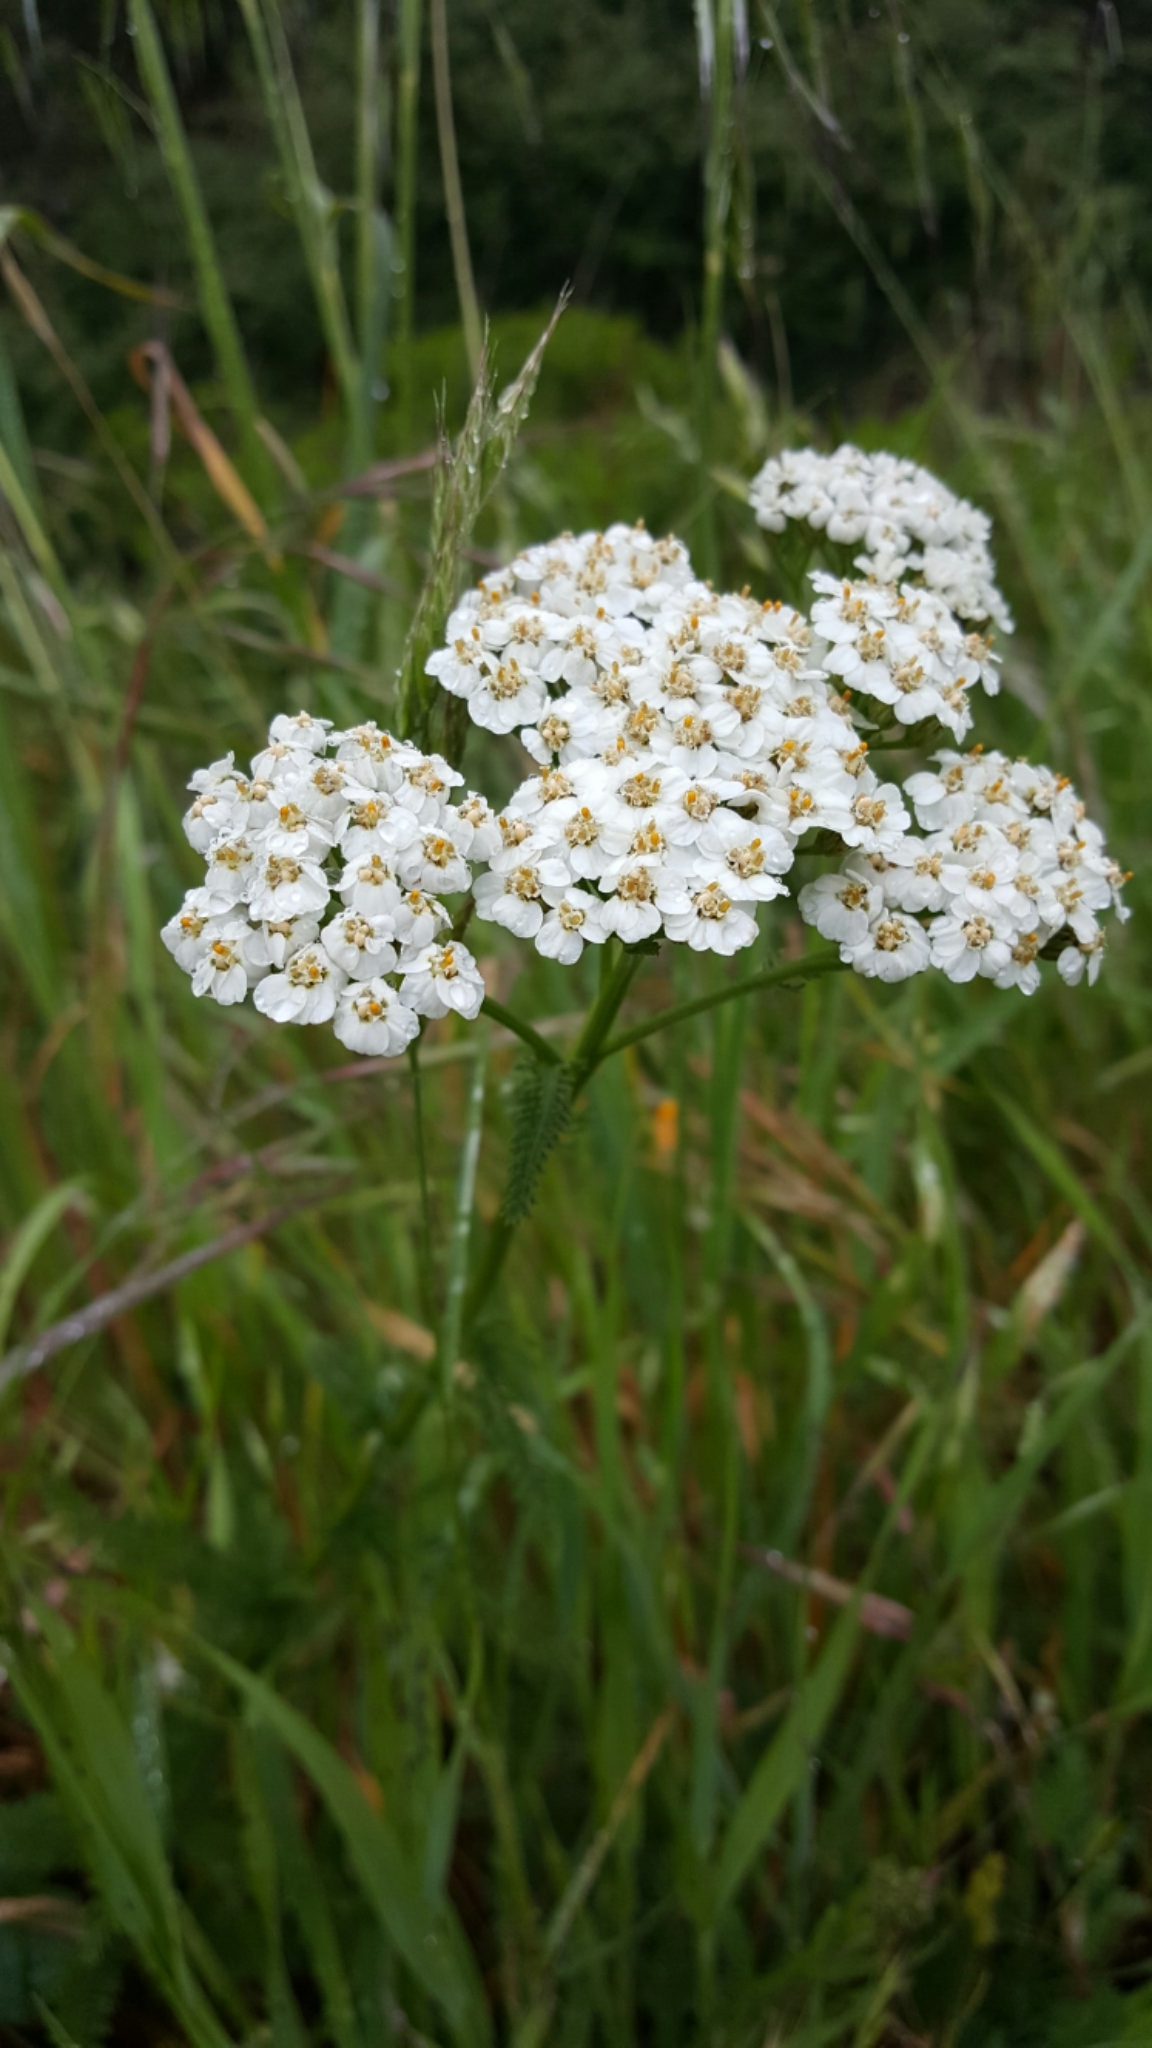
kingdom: Plantae
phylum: Tracheophyta
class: Magnoliopsida
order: Asterales
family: Asteraceae
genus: Achillea
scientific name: Achillea millefolium
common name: Yarrow
